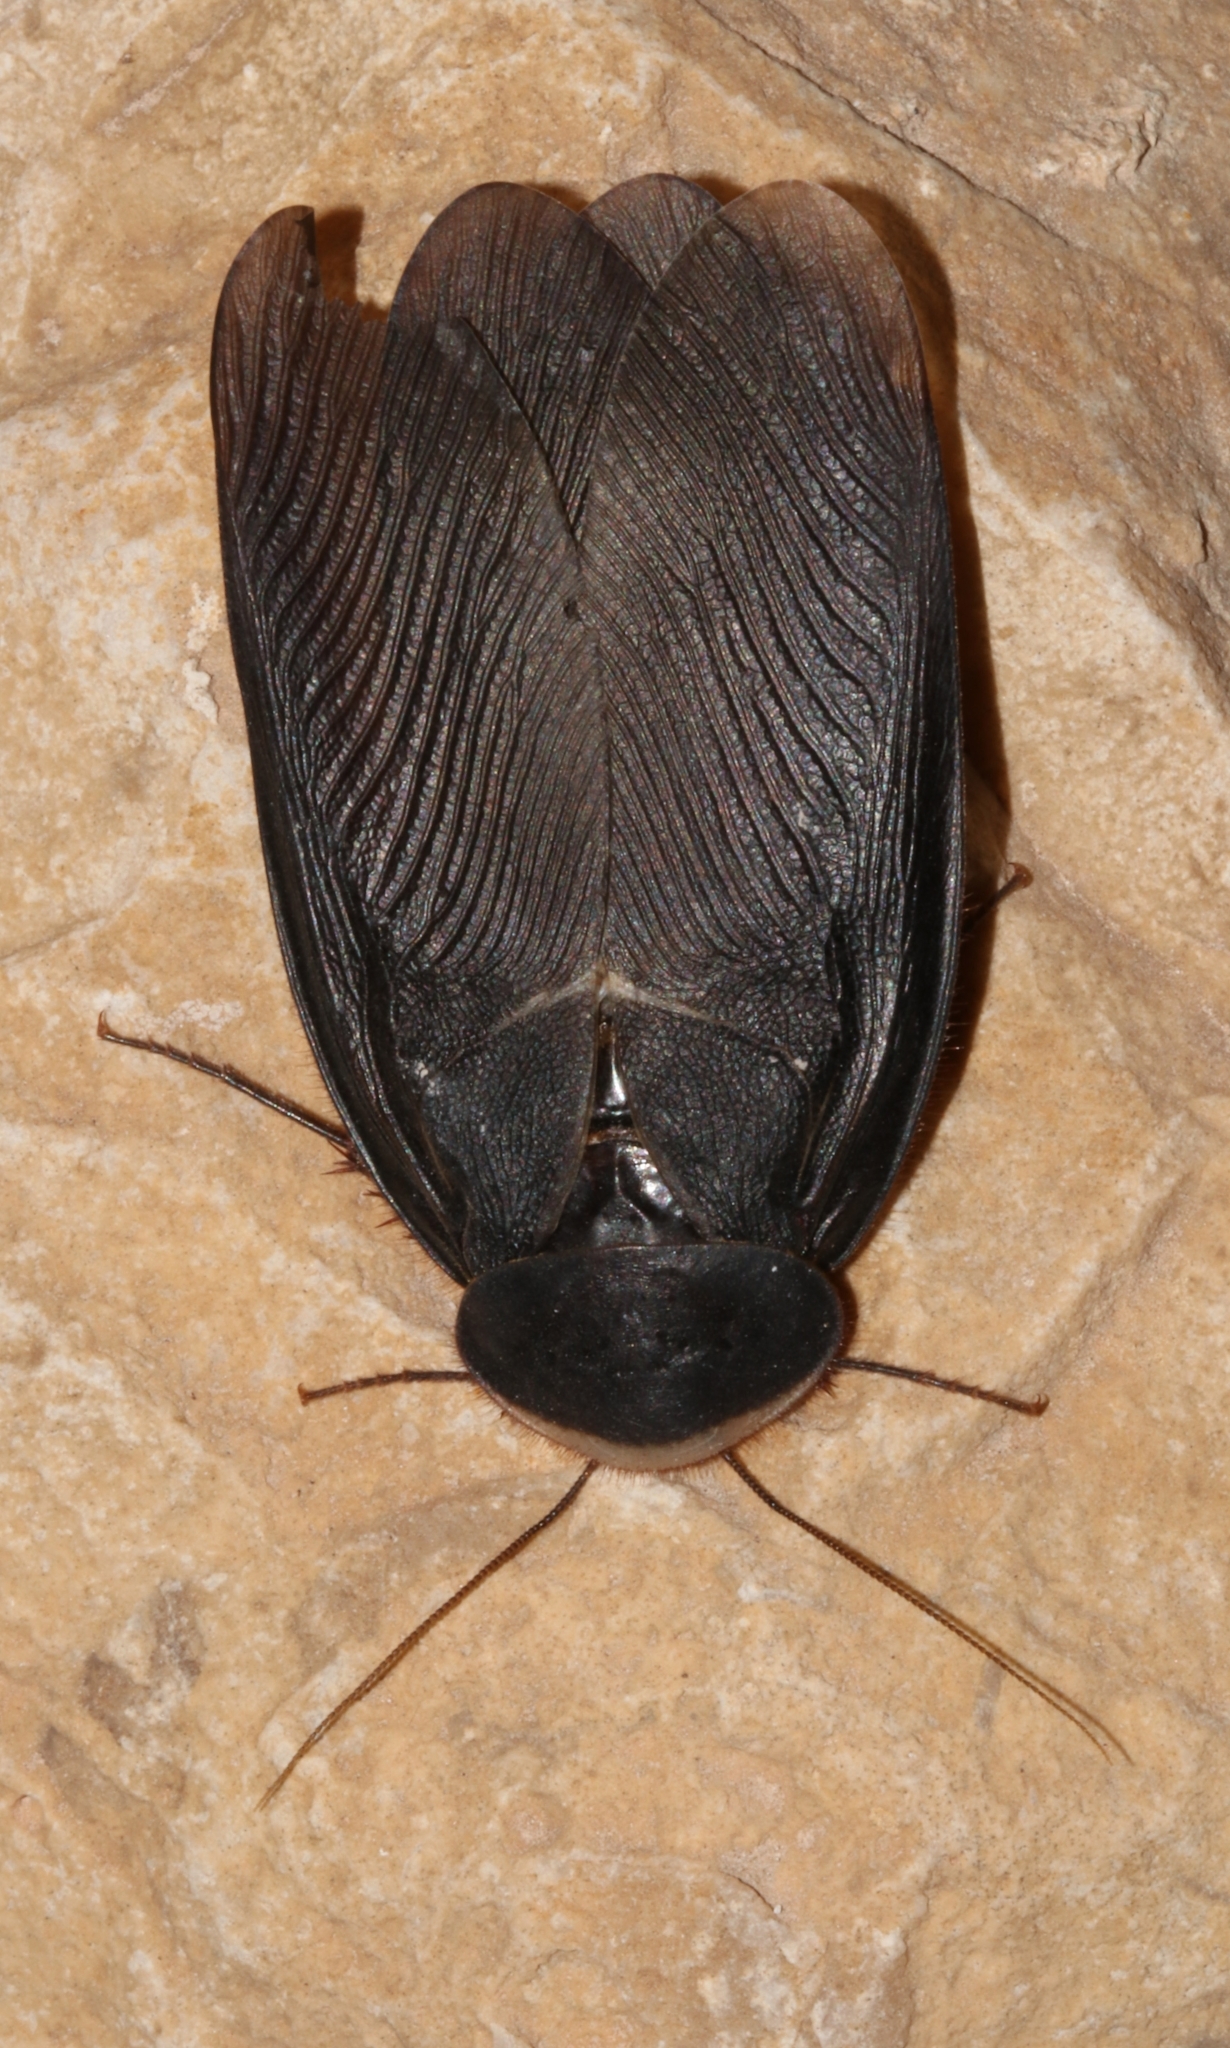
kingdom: Animalia
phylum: Arthropoda
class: Insecta
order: Blattodea
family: Corydiidae
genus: Polyphaga
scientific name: Polyphaga aegyptiaca
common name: Egyptian cockroach
